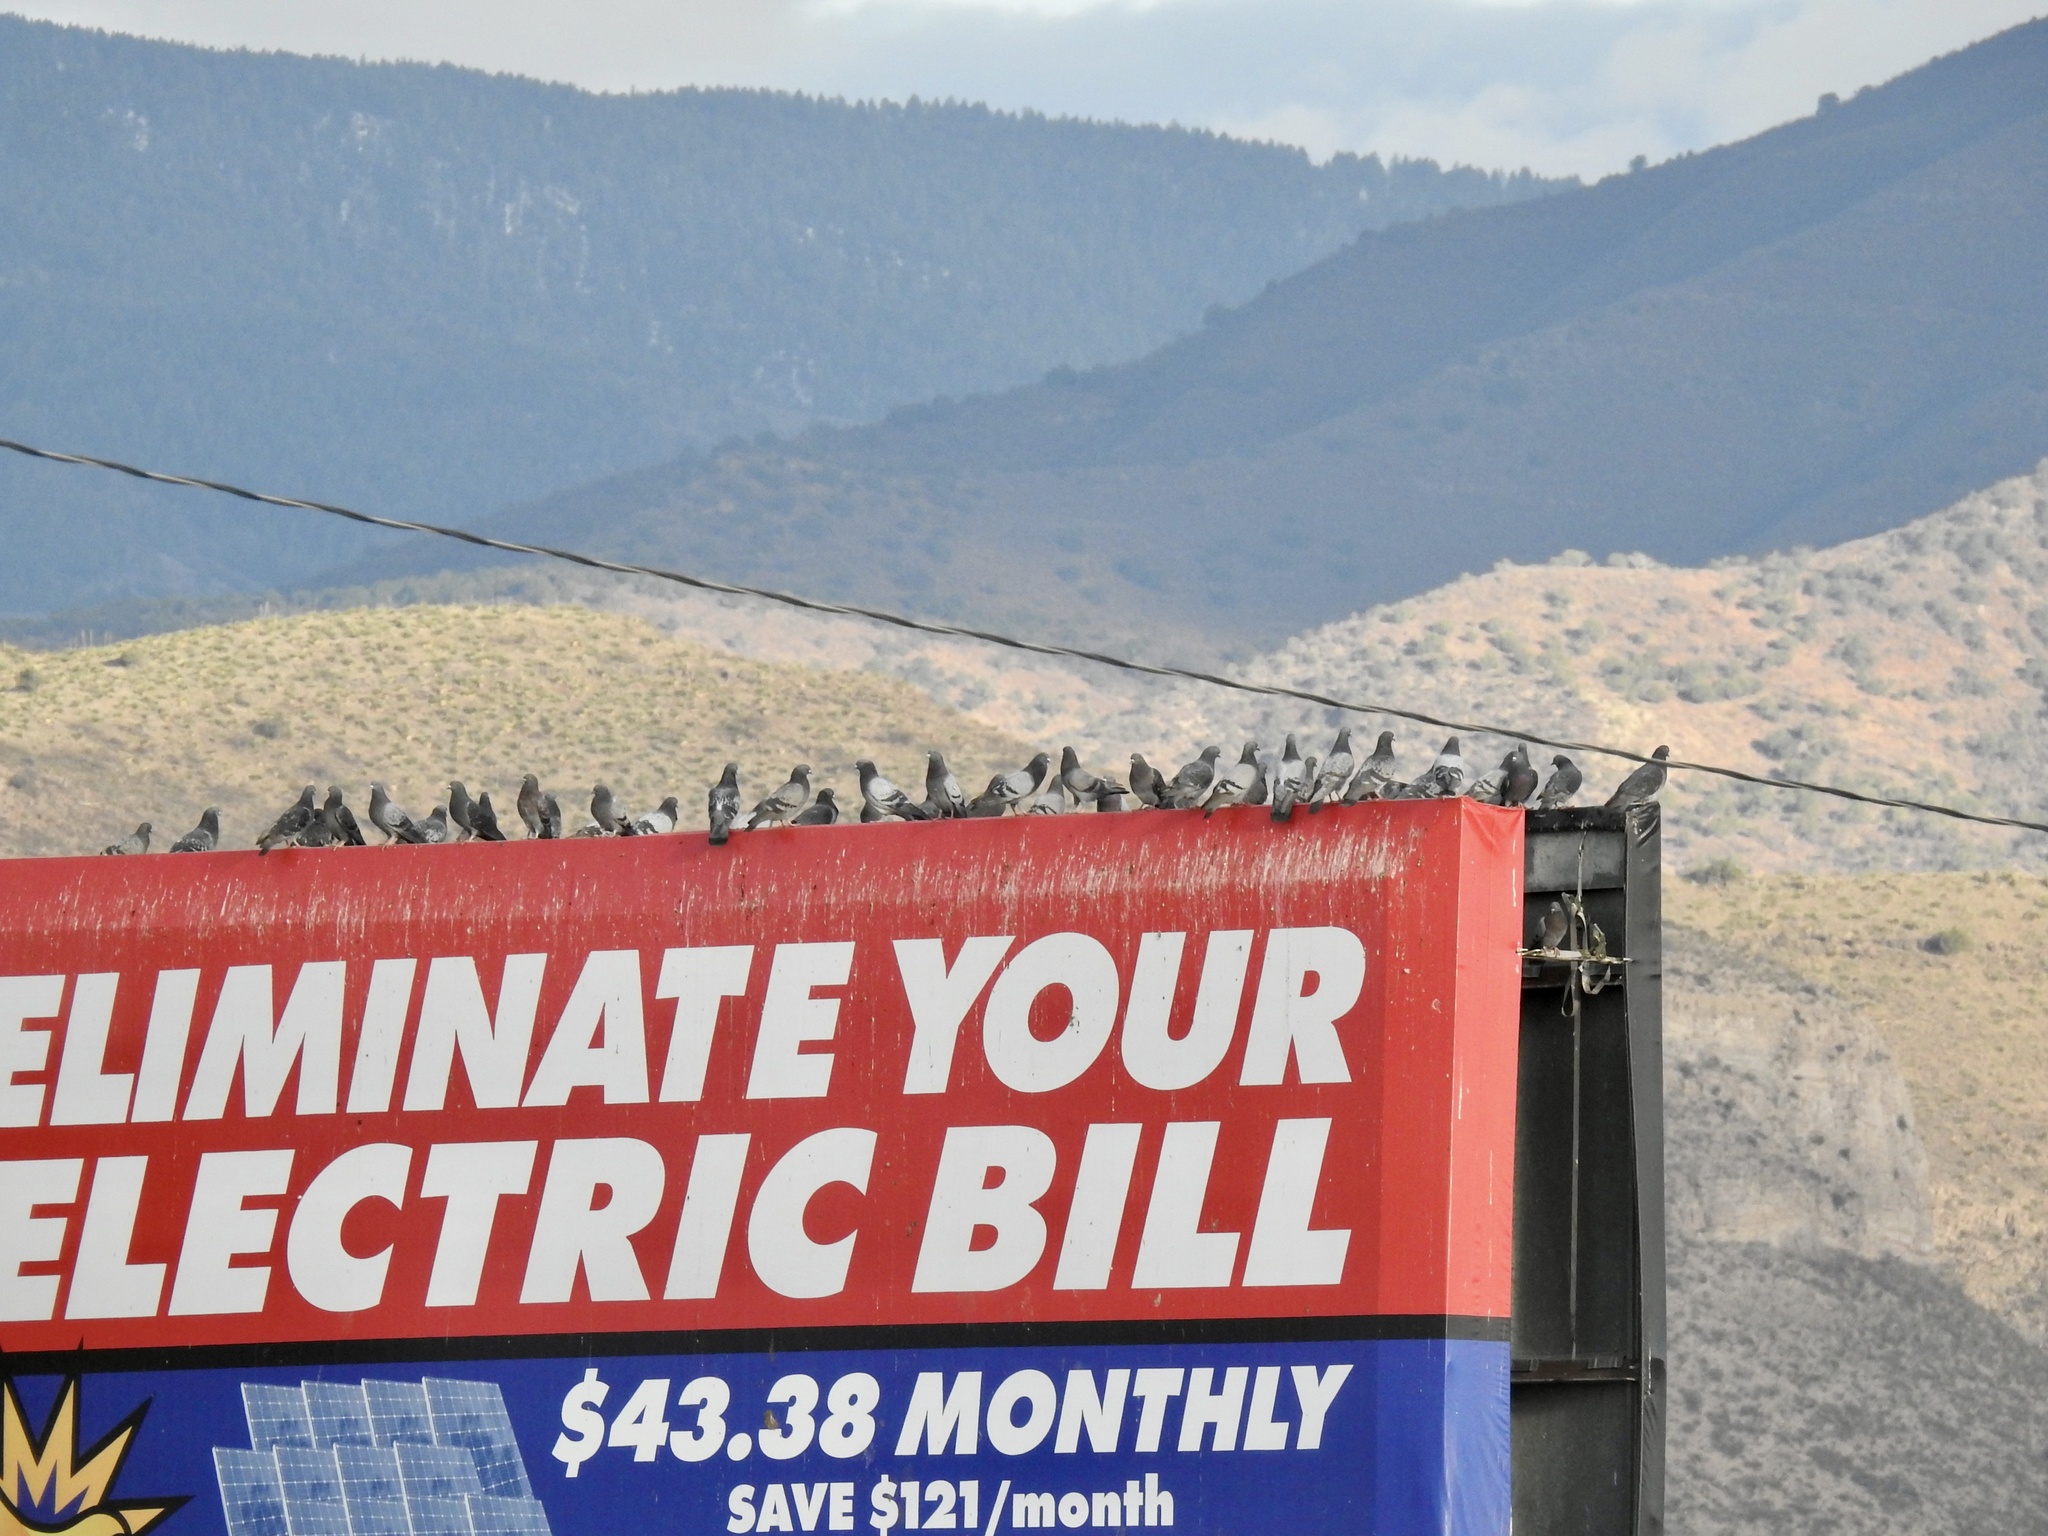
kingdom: Animalia
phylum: Chordata
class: Aves
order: Columbiformes
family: Columbidae
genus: Columba
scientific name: Columba livia
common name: Rock pigeon
